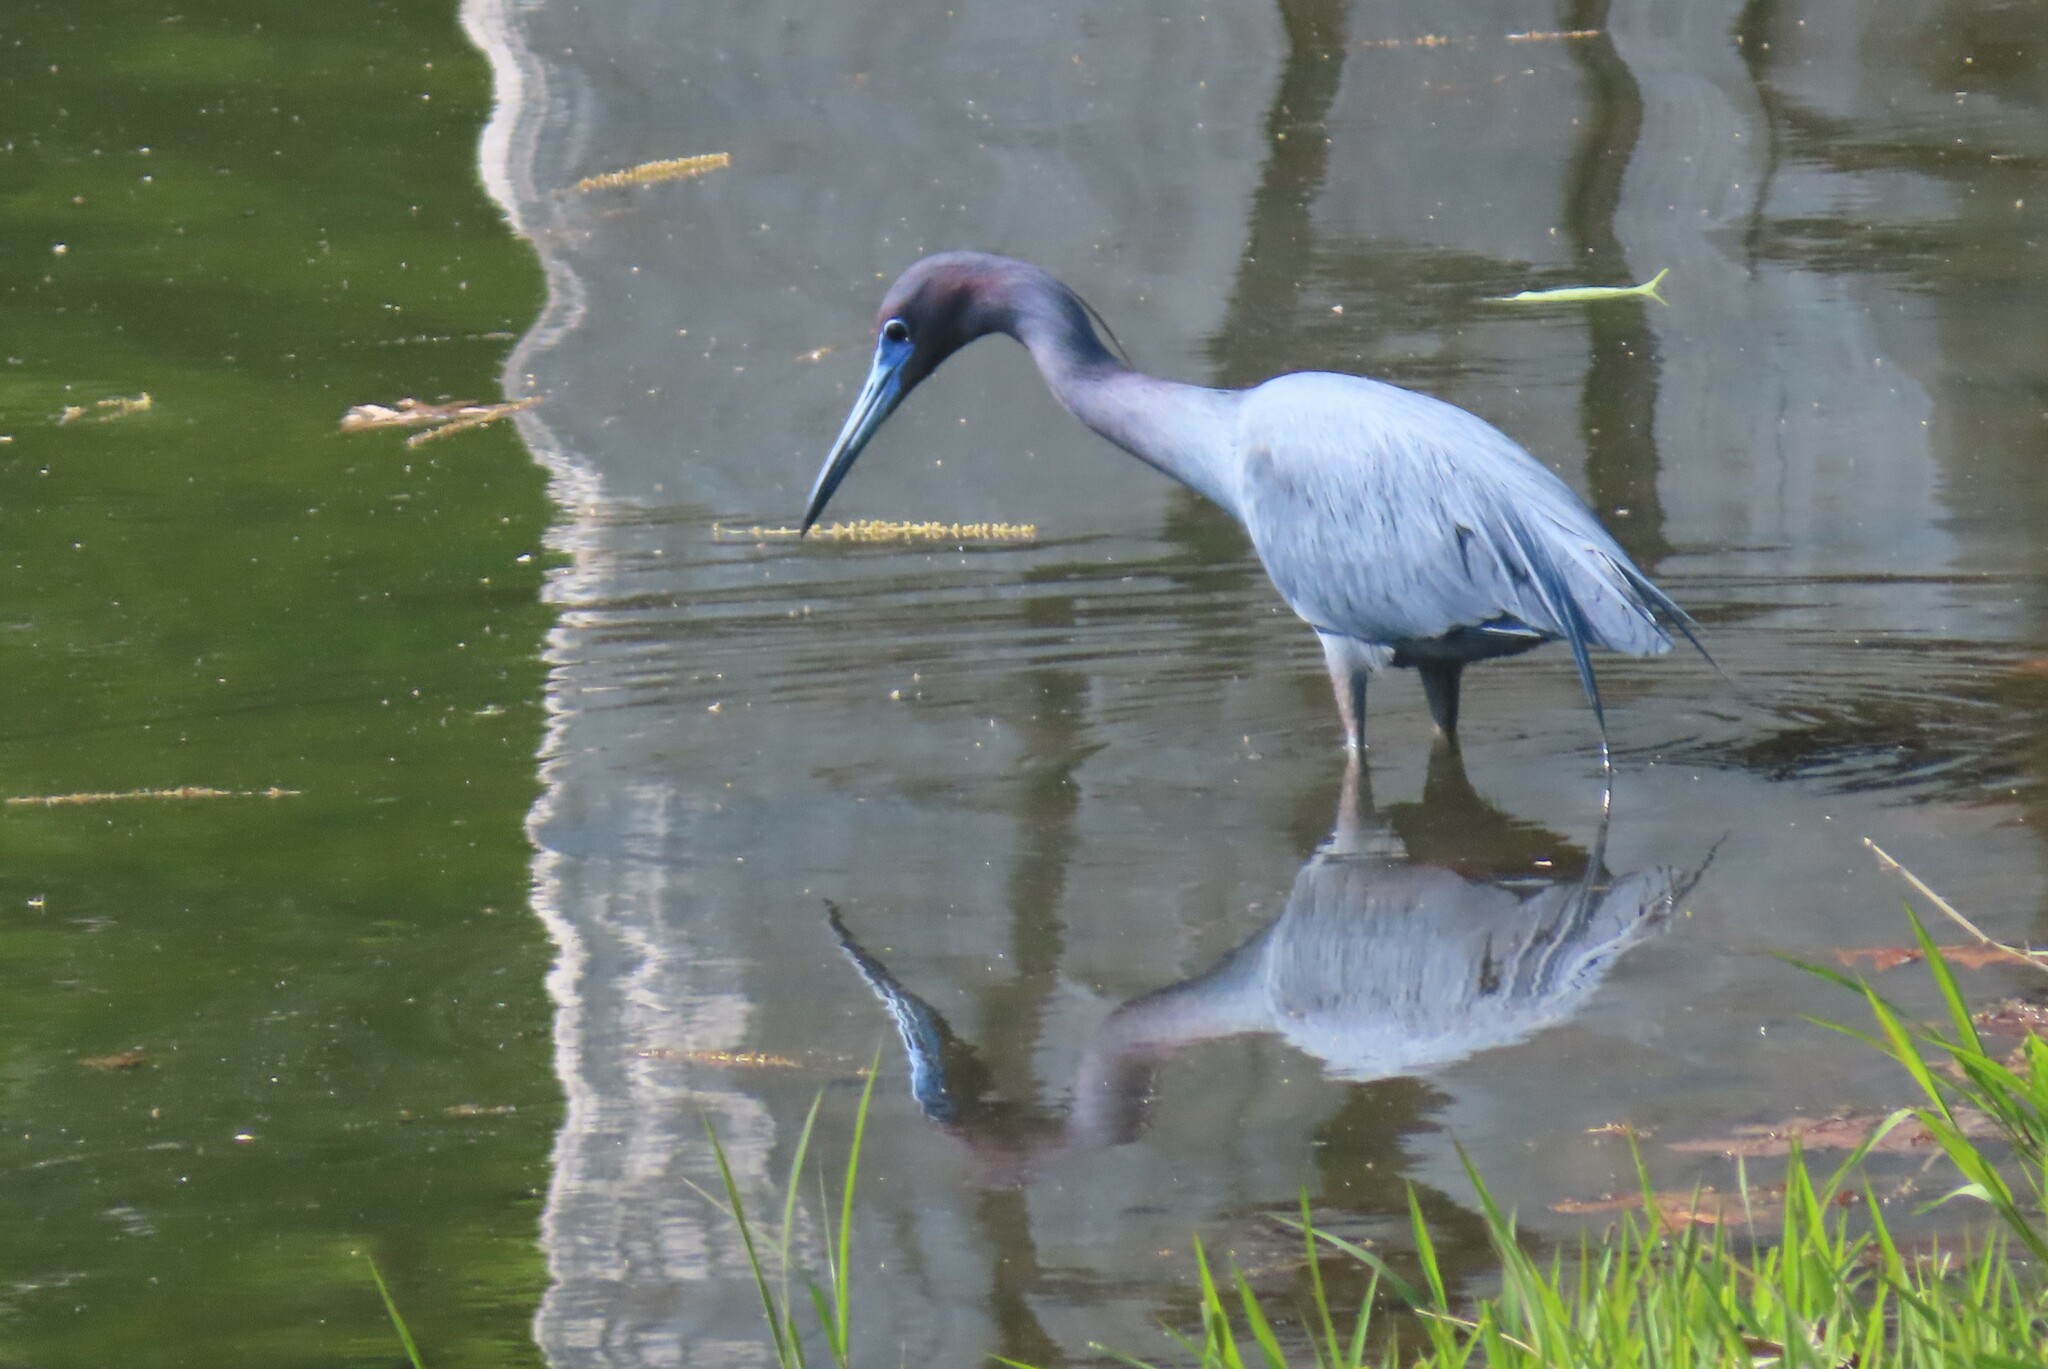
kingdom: Animalia
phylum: Chordata
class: Aves
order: Pelecaniformes
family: Ardeidae
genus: Egretta
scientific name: Egretta caerulea
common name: Little blue heron
